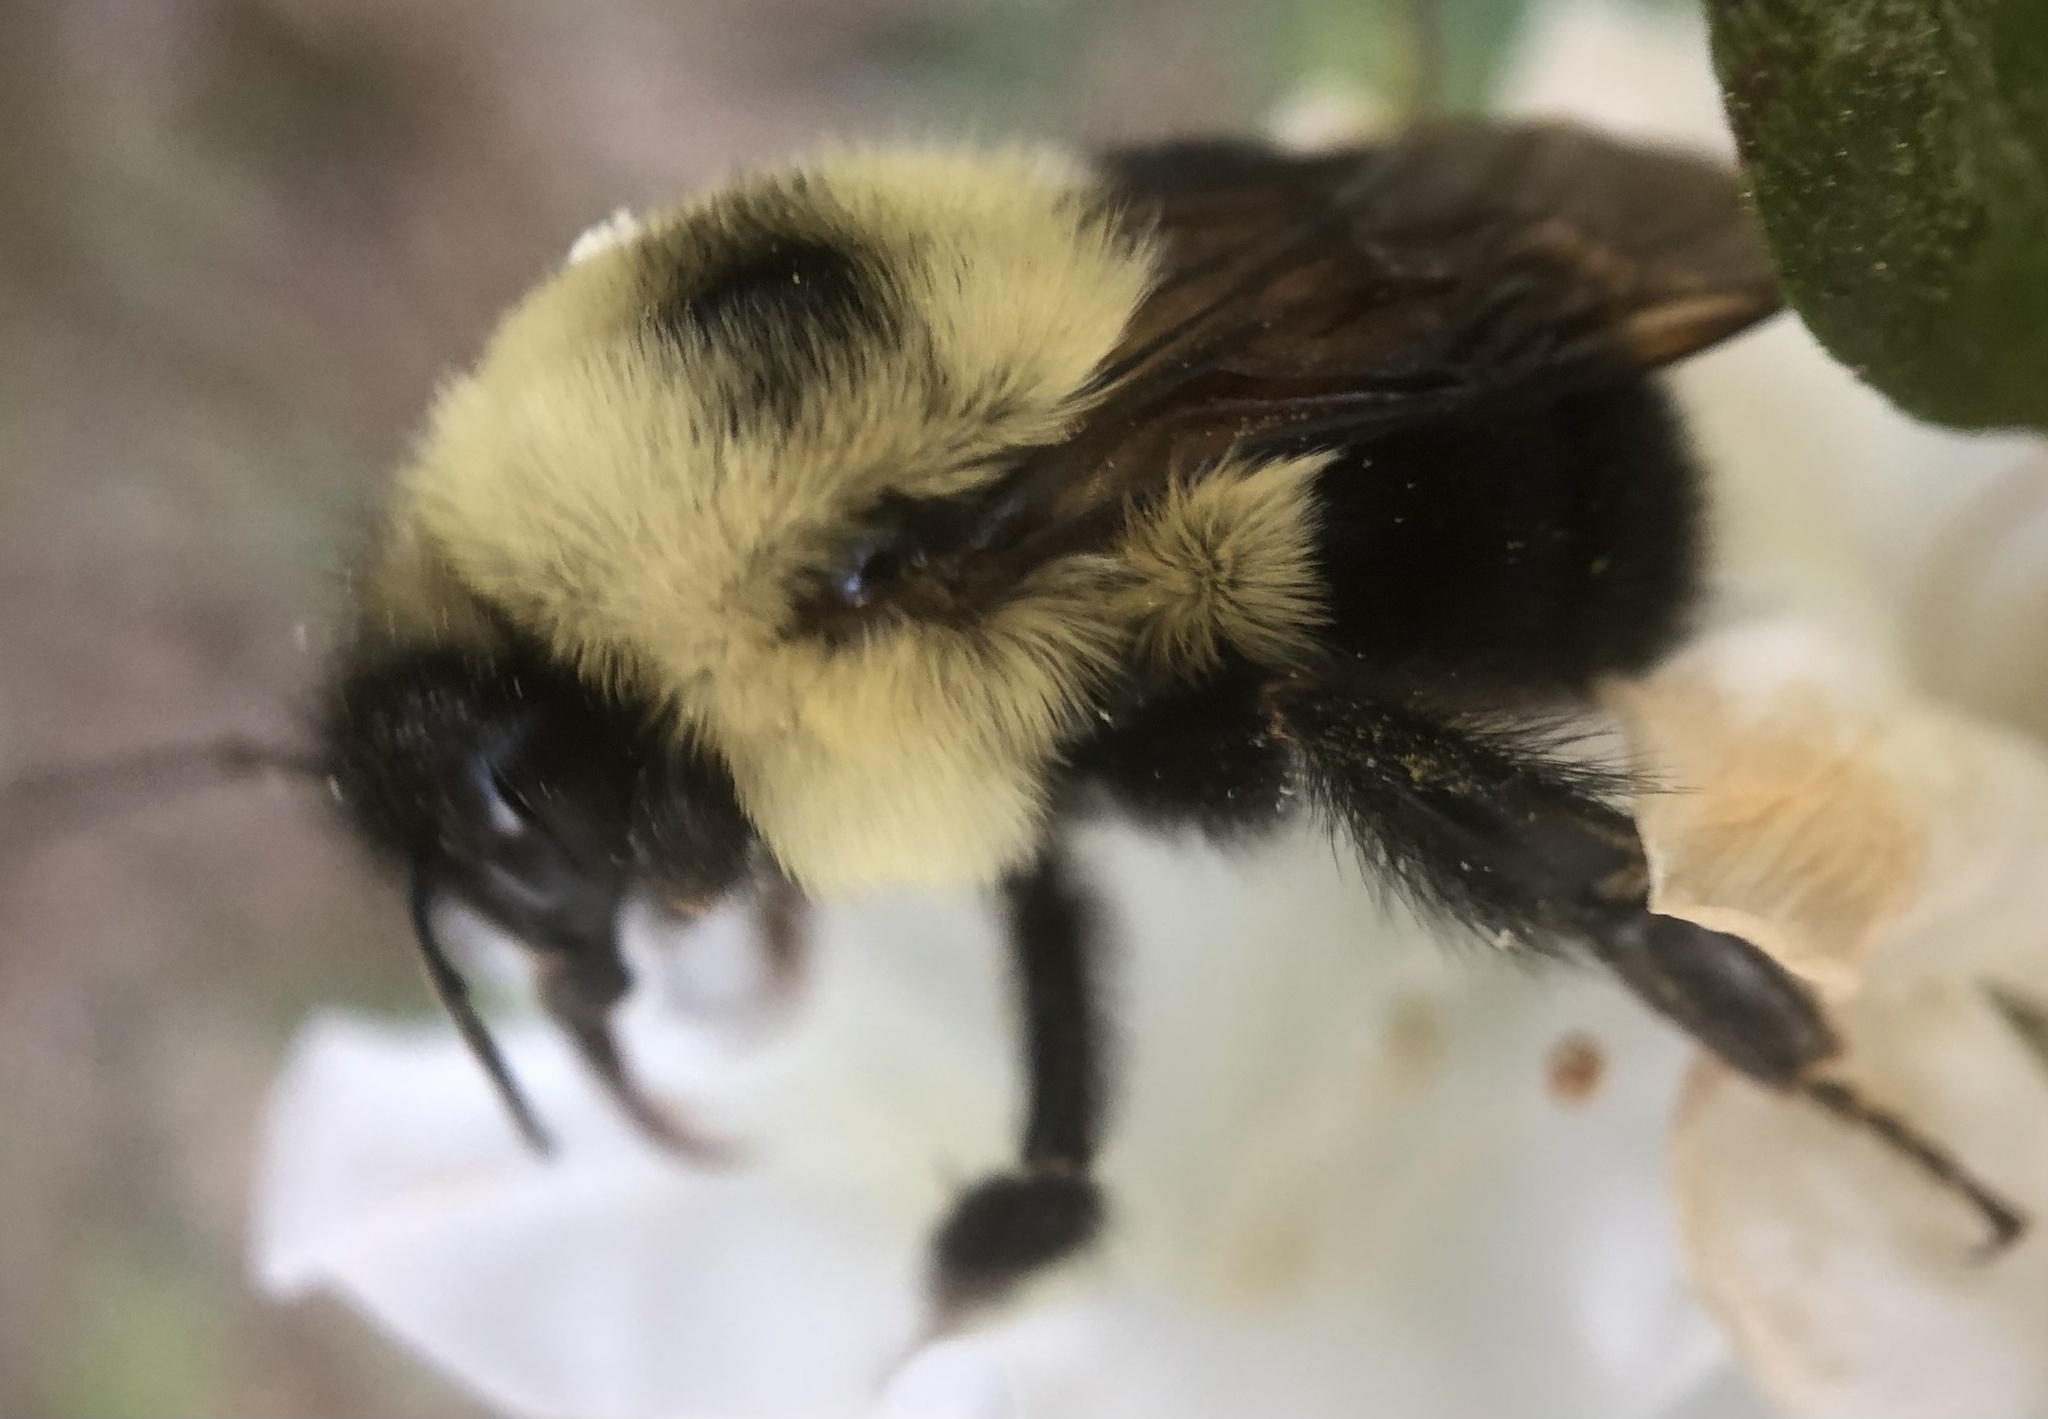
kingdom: Animalia
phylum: Arthropoda
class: Insecta
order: Hymenoptera
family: Apidae
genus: Bombus
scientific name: Bombus bimaculatus
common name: Two-spotted bumble bee
